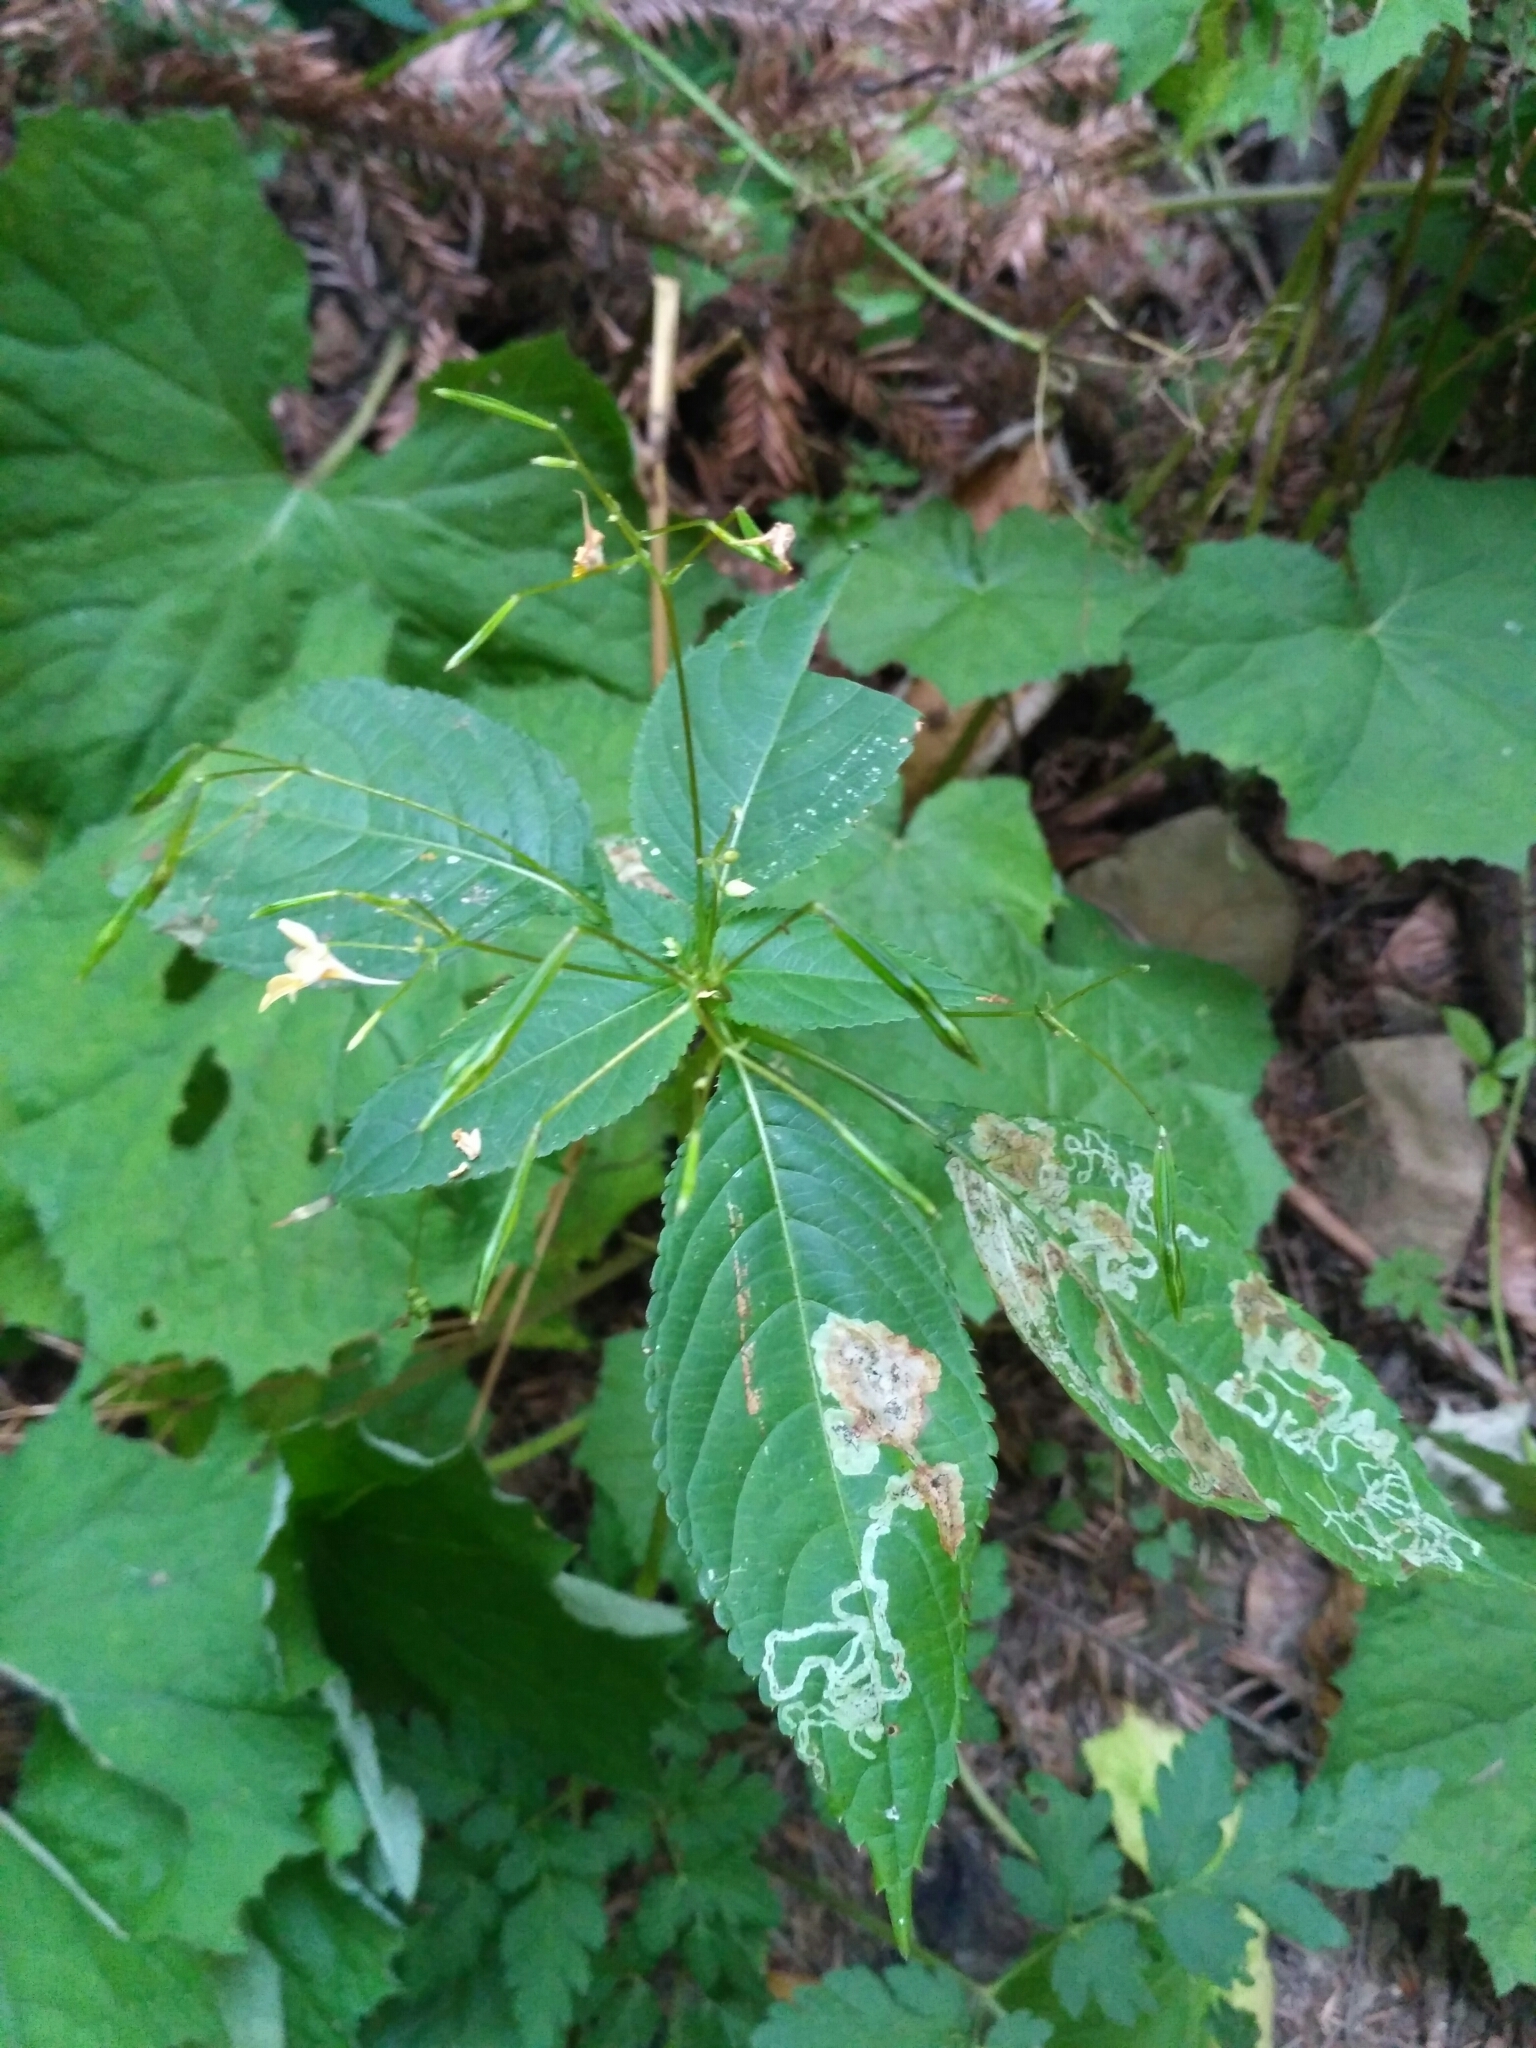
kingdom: Animalia
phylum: Arthropoda
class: Insecta
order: Diptera
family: Agromyzidae
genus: Phytoliriomyza
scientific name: Phytoliriomyza melampyga
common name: Jewelweed leaf-miner fly
